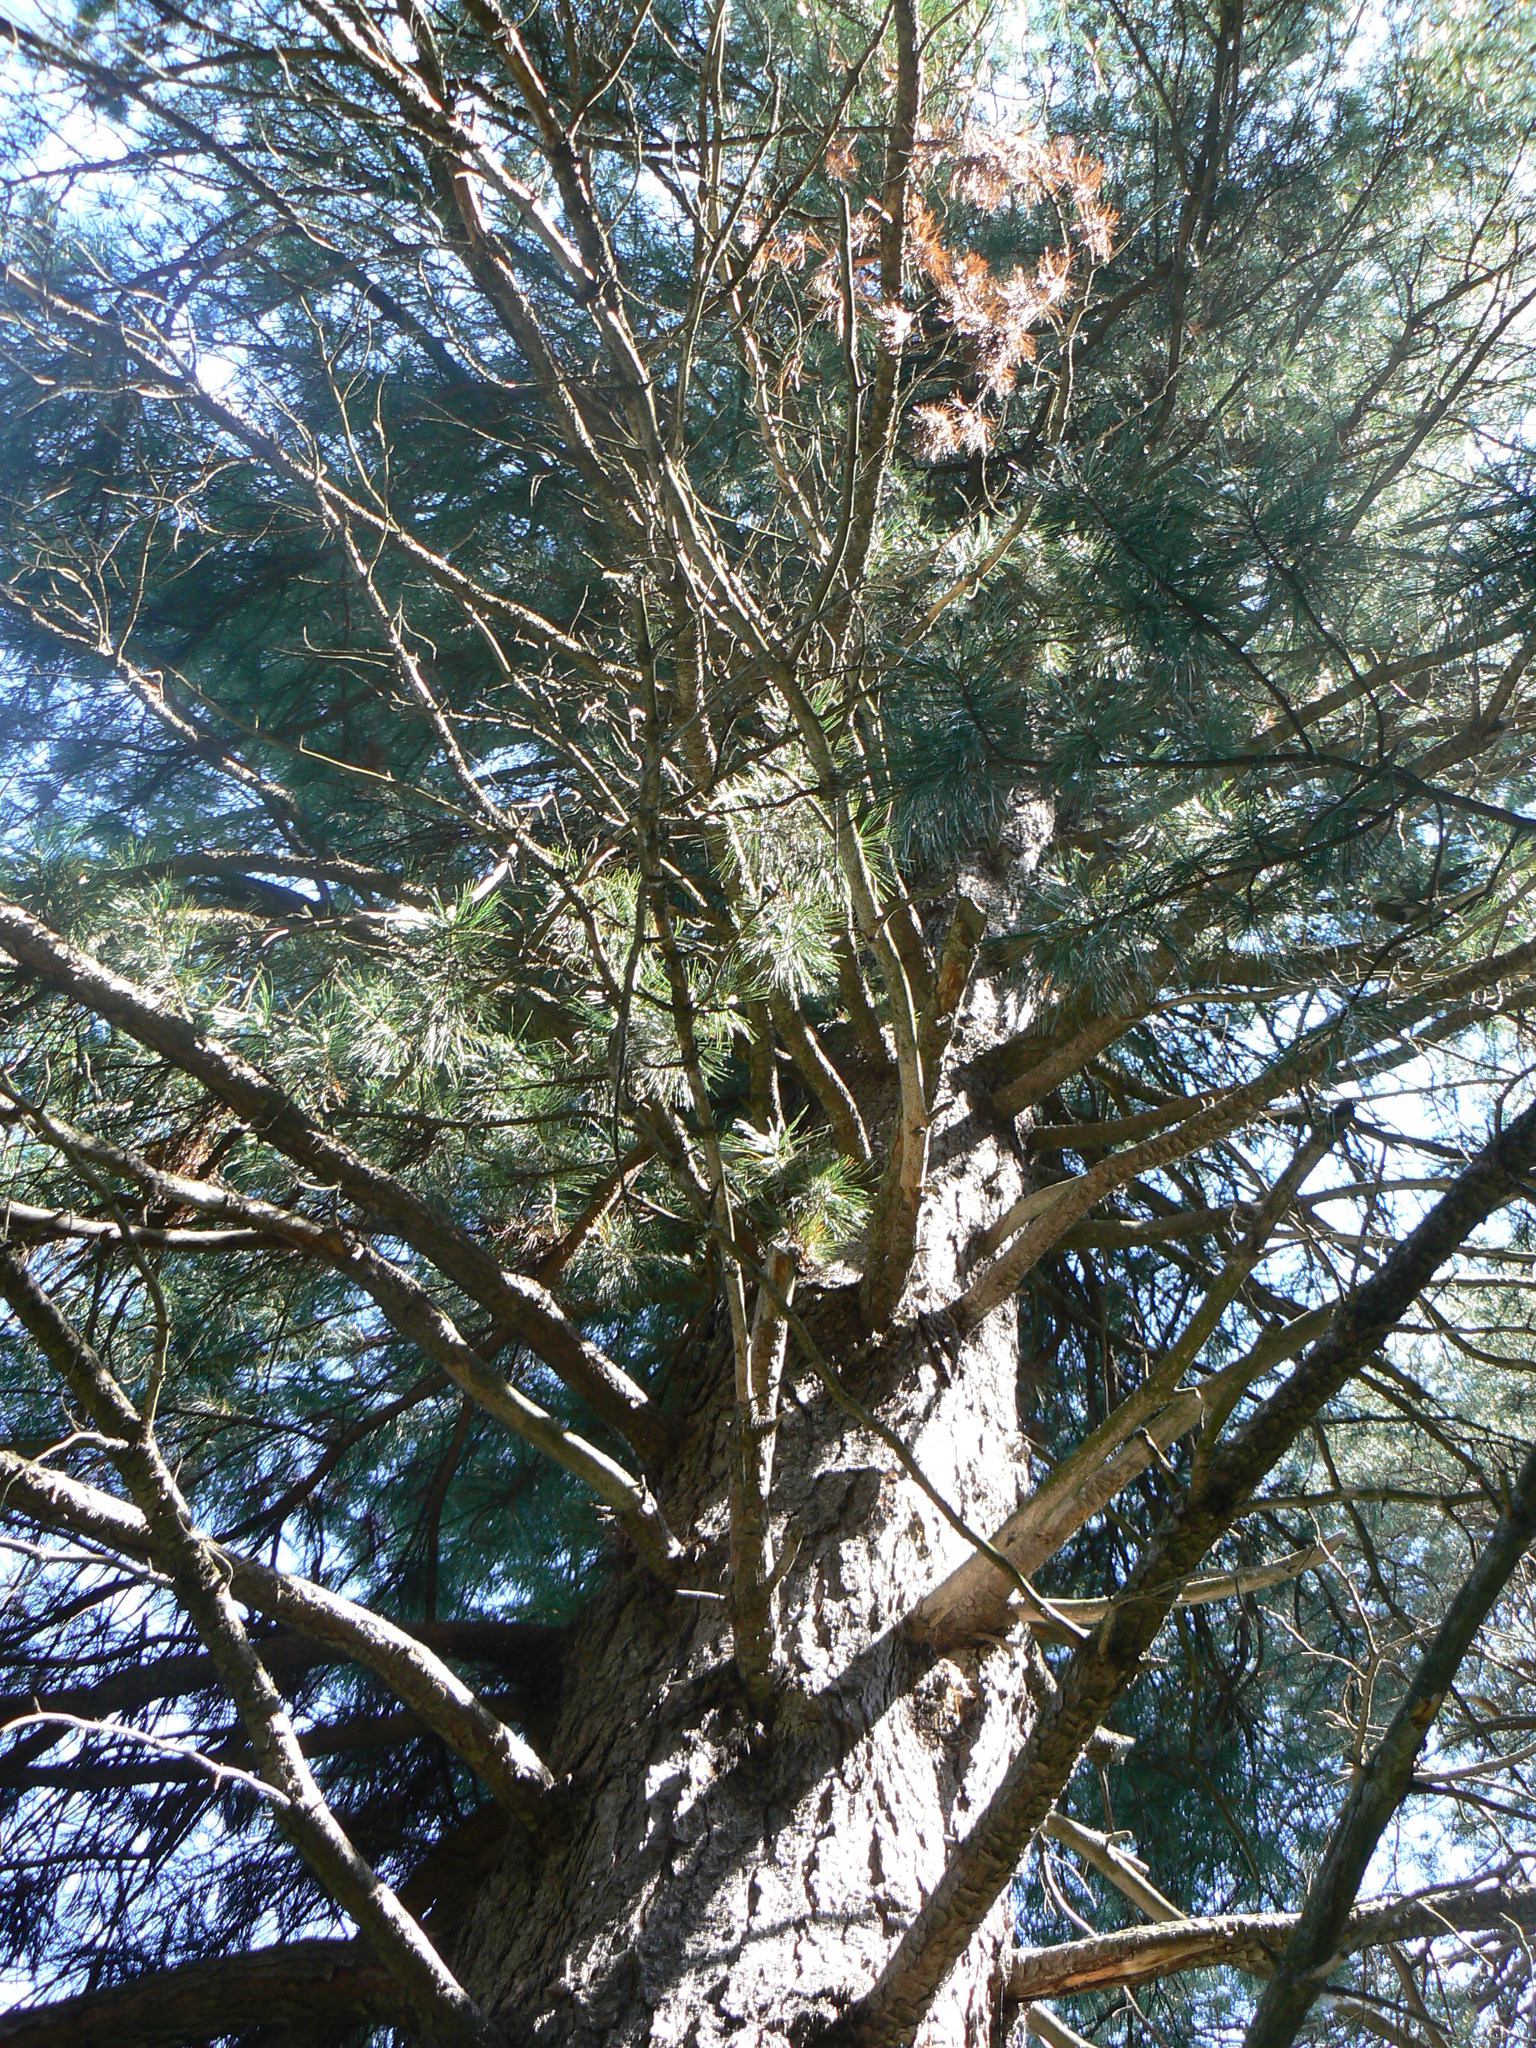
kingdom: Plantae
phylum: Tracheophyta
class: Pinopsida
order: Pinales
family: Pinaceae
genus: Pinus
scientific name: Pinus sibirica
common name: Siberian pine
